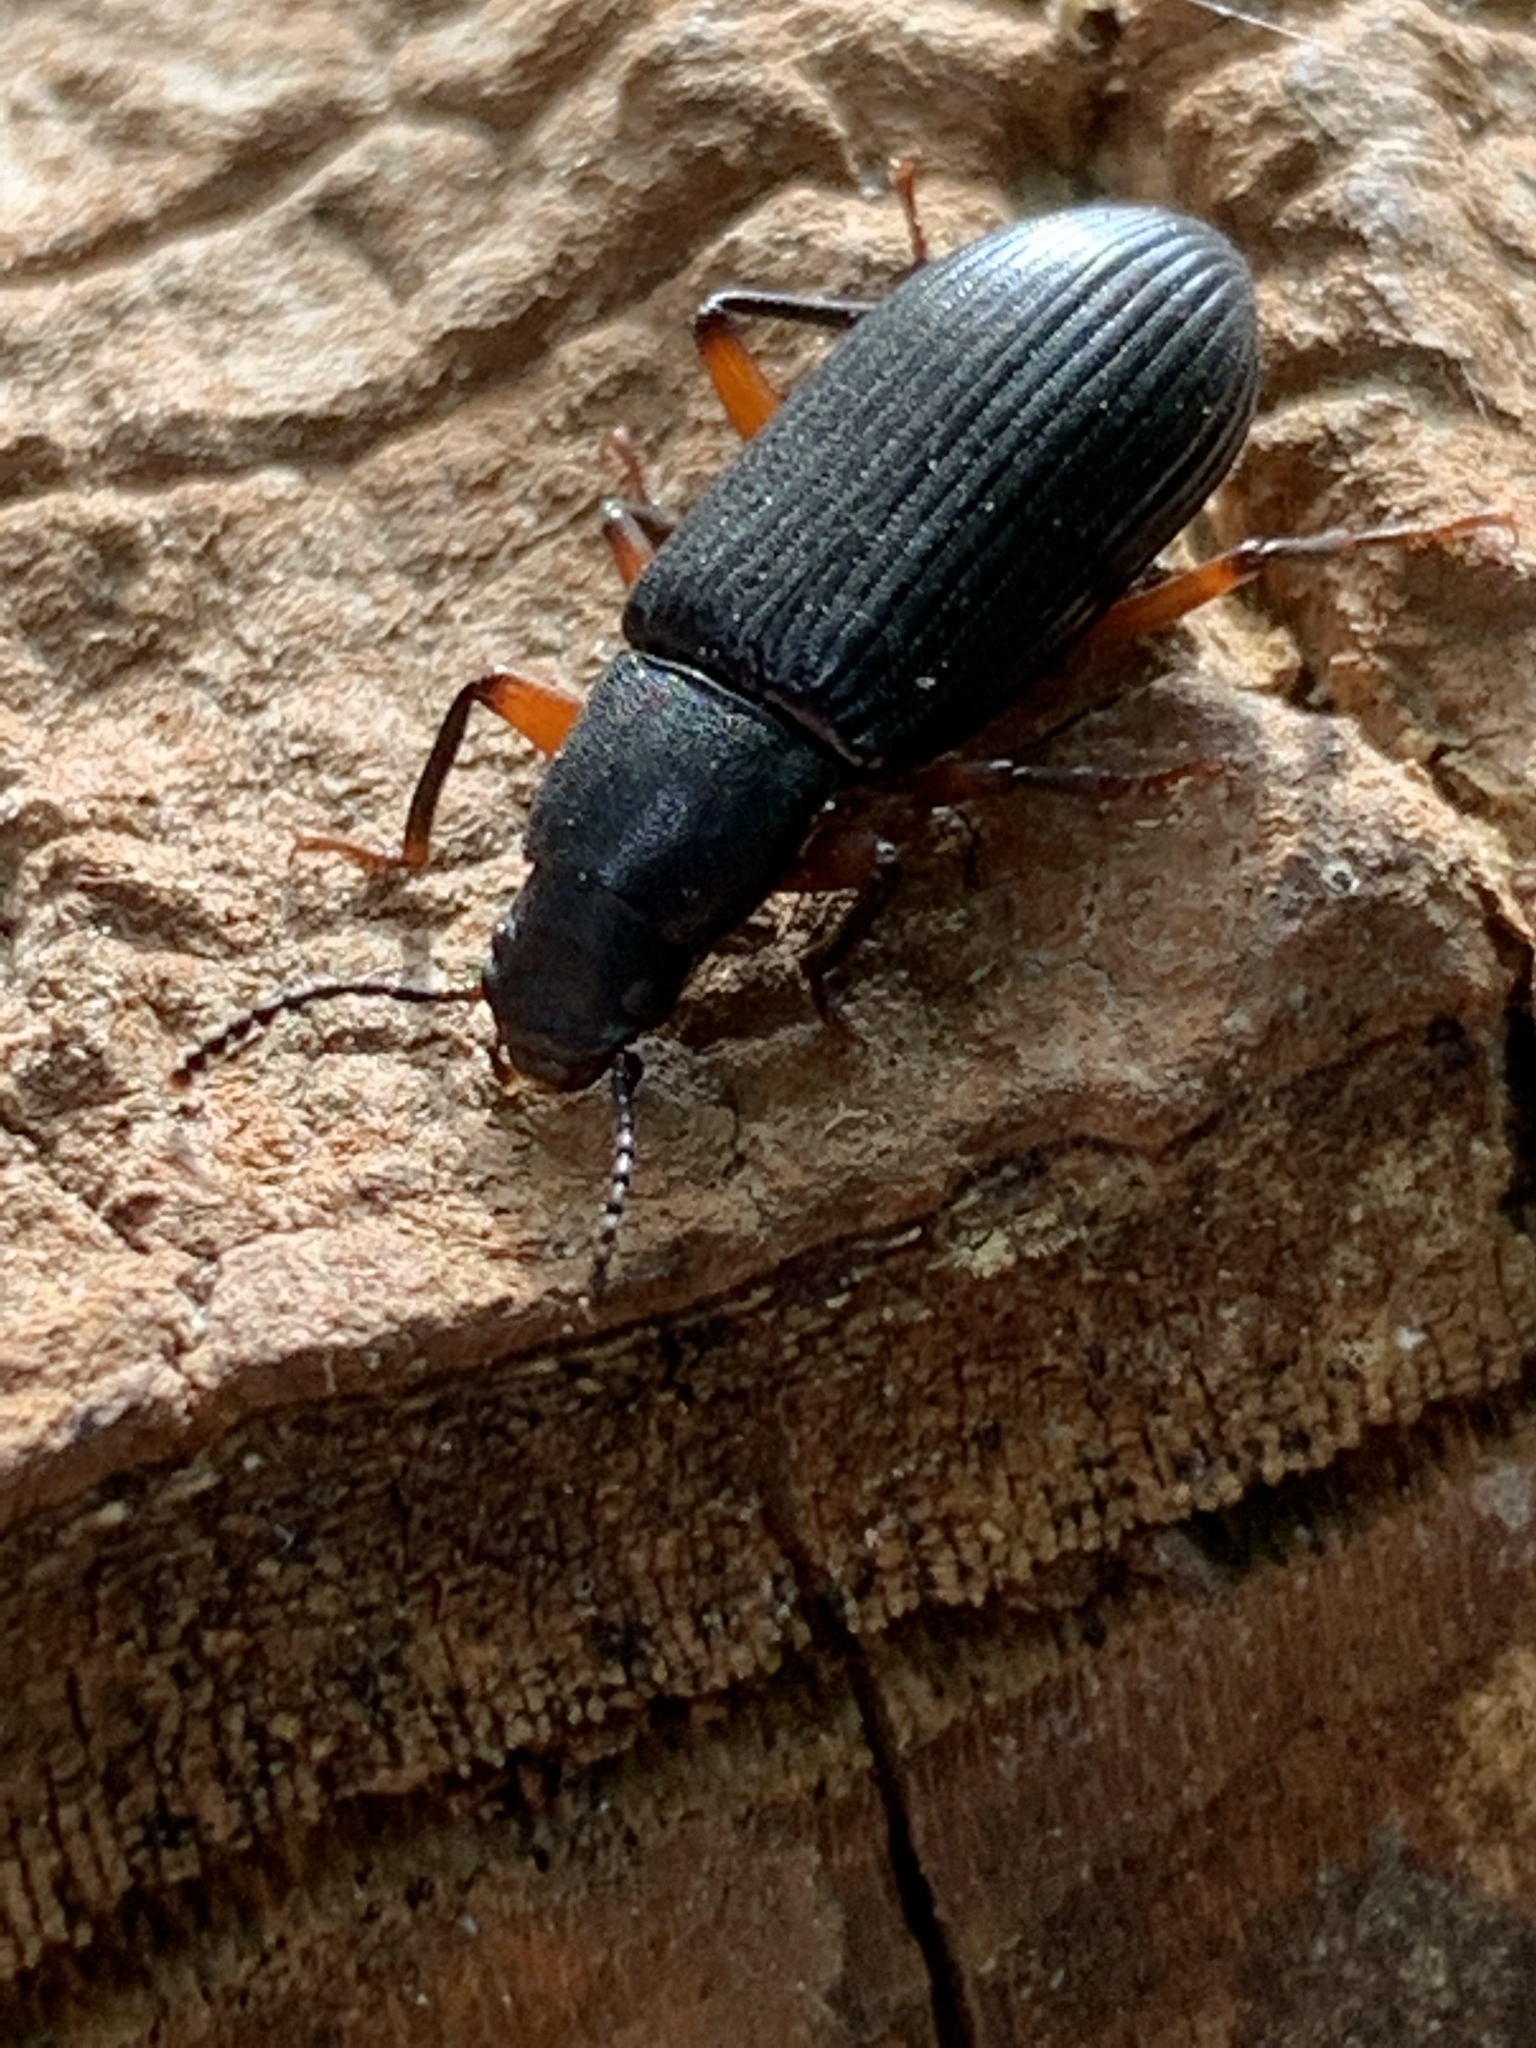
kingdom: Animalia
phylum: Arthropoda
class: Insecta
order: Coleoptera
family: Tenebrionidae
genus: Xylopinus
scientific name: Xylopinus saperdoides
